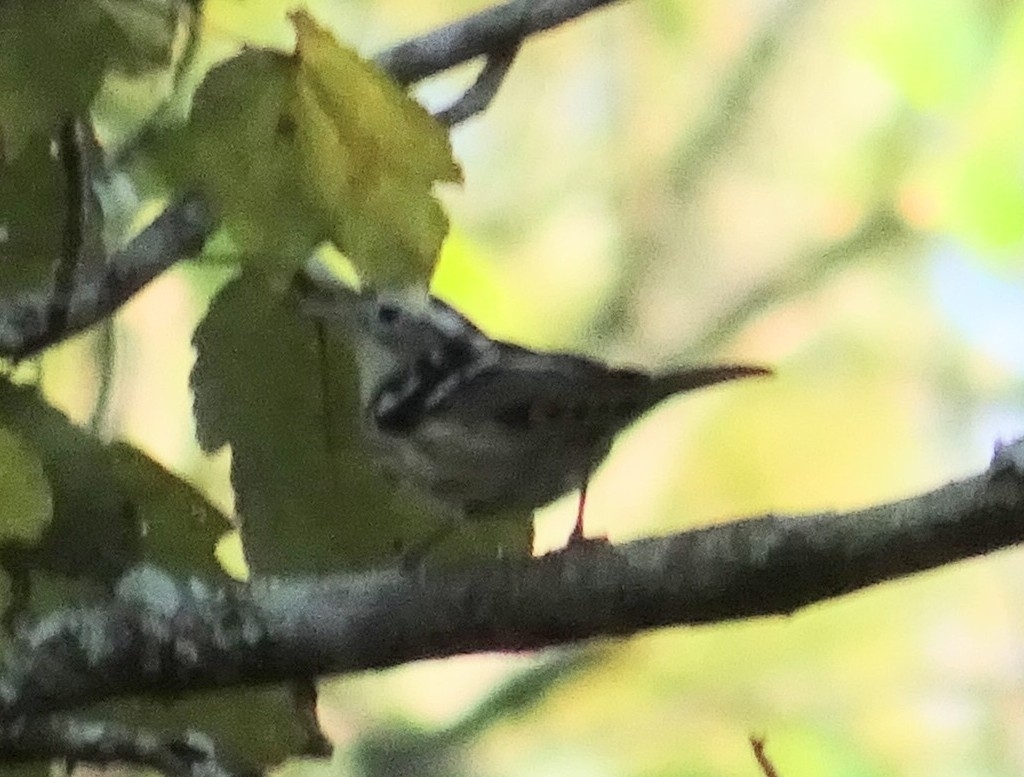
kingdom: Animalia
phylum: Chordata
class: Aves
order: Passeriformes
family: Parulidae
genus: Mniotilta
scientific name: Mniotilta varia
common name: Black-and-white warbler
